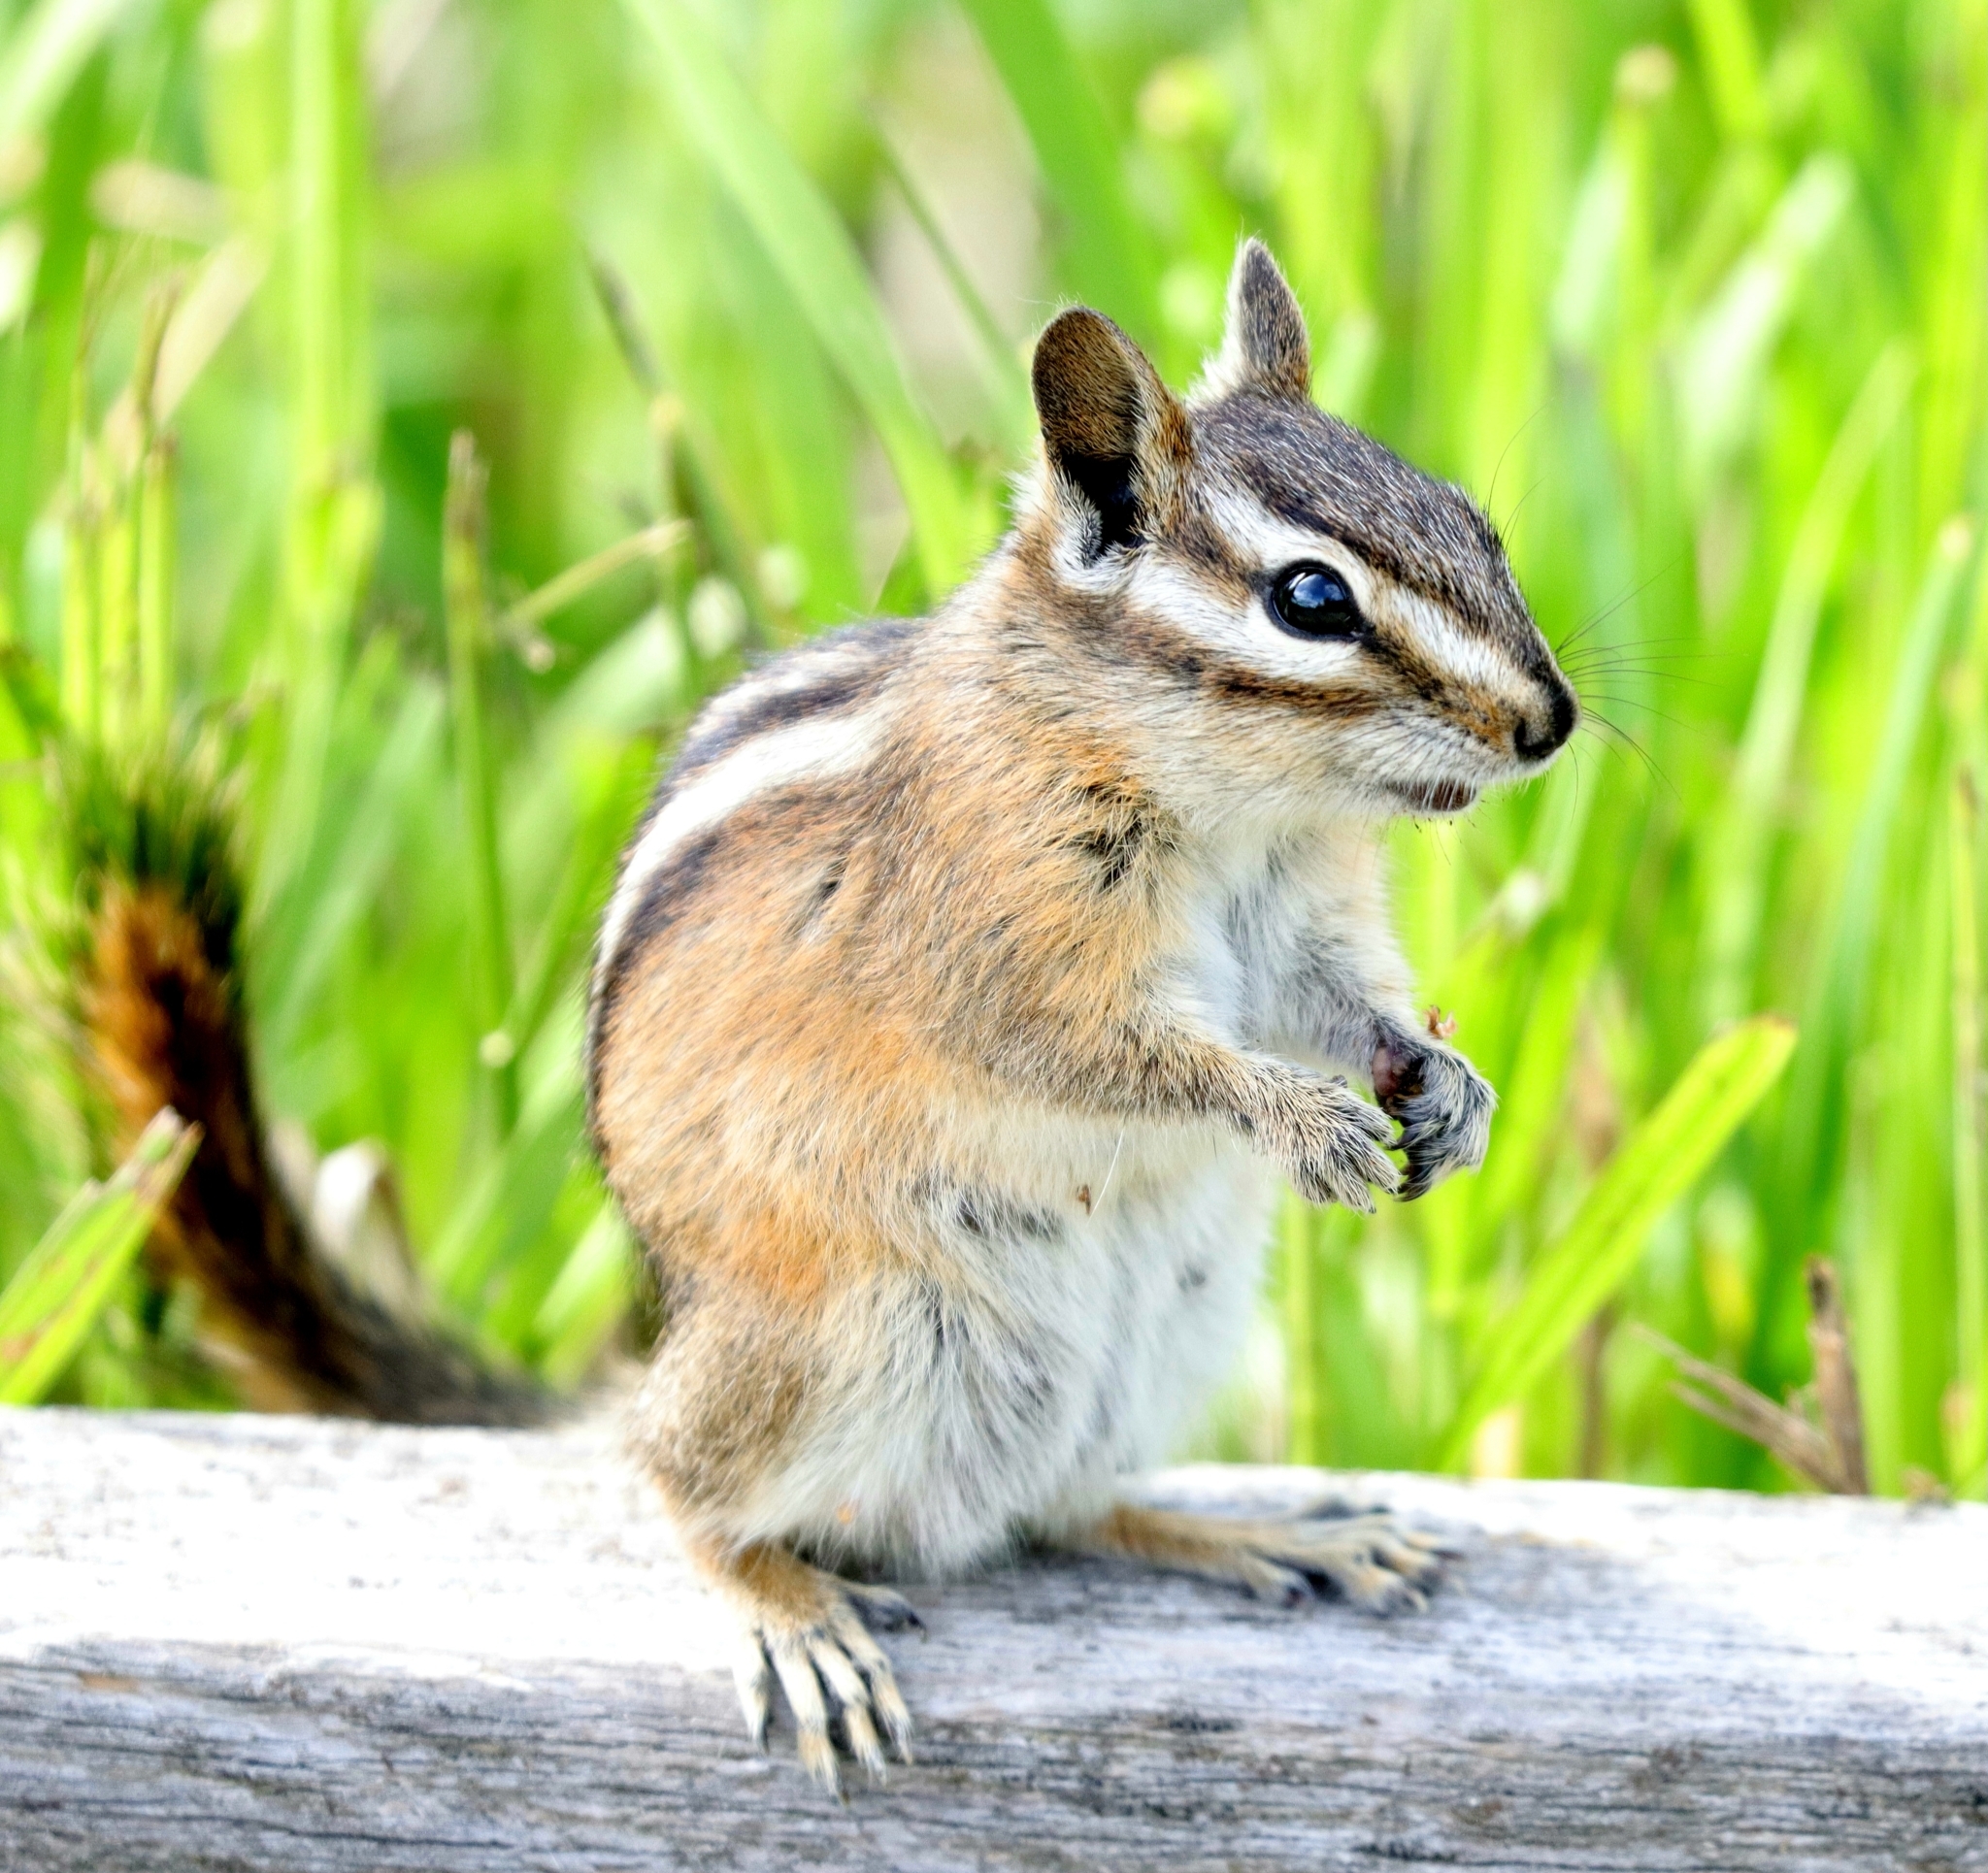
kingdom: Animalia
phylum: Chordata
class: Mammalia
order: Rodentia
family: Sciuridae
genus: Tamias
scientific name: Tamias amoenus
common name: Yellow-pine chipmunk
